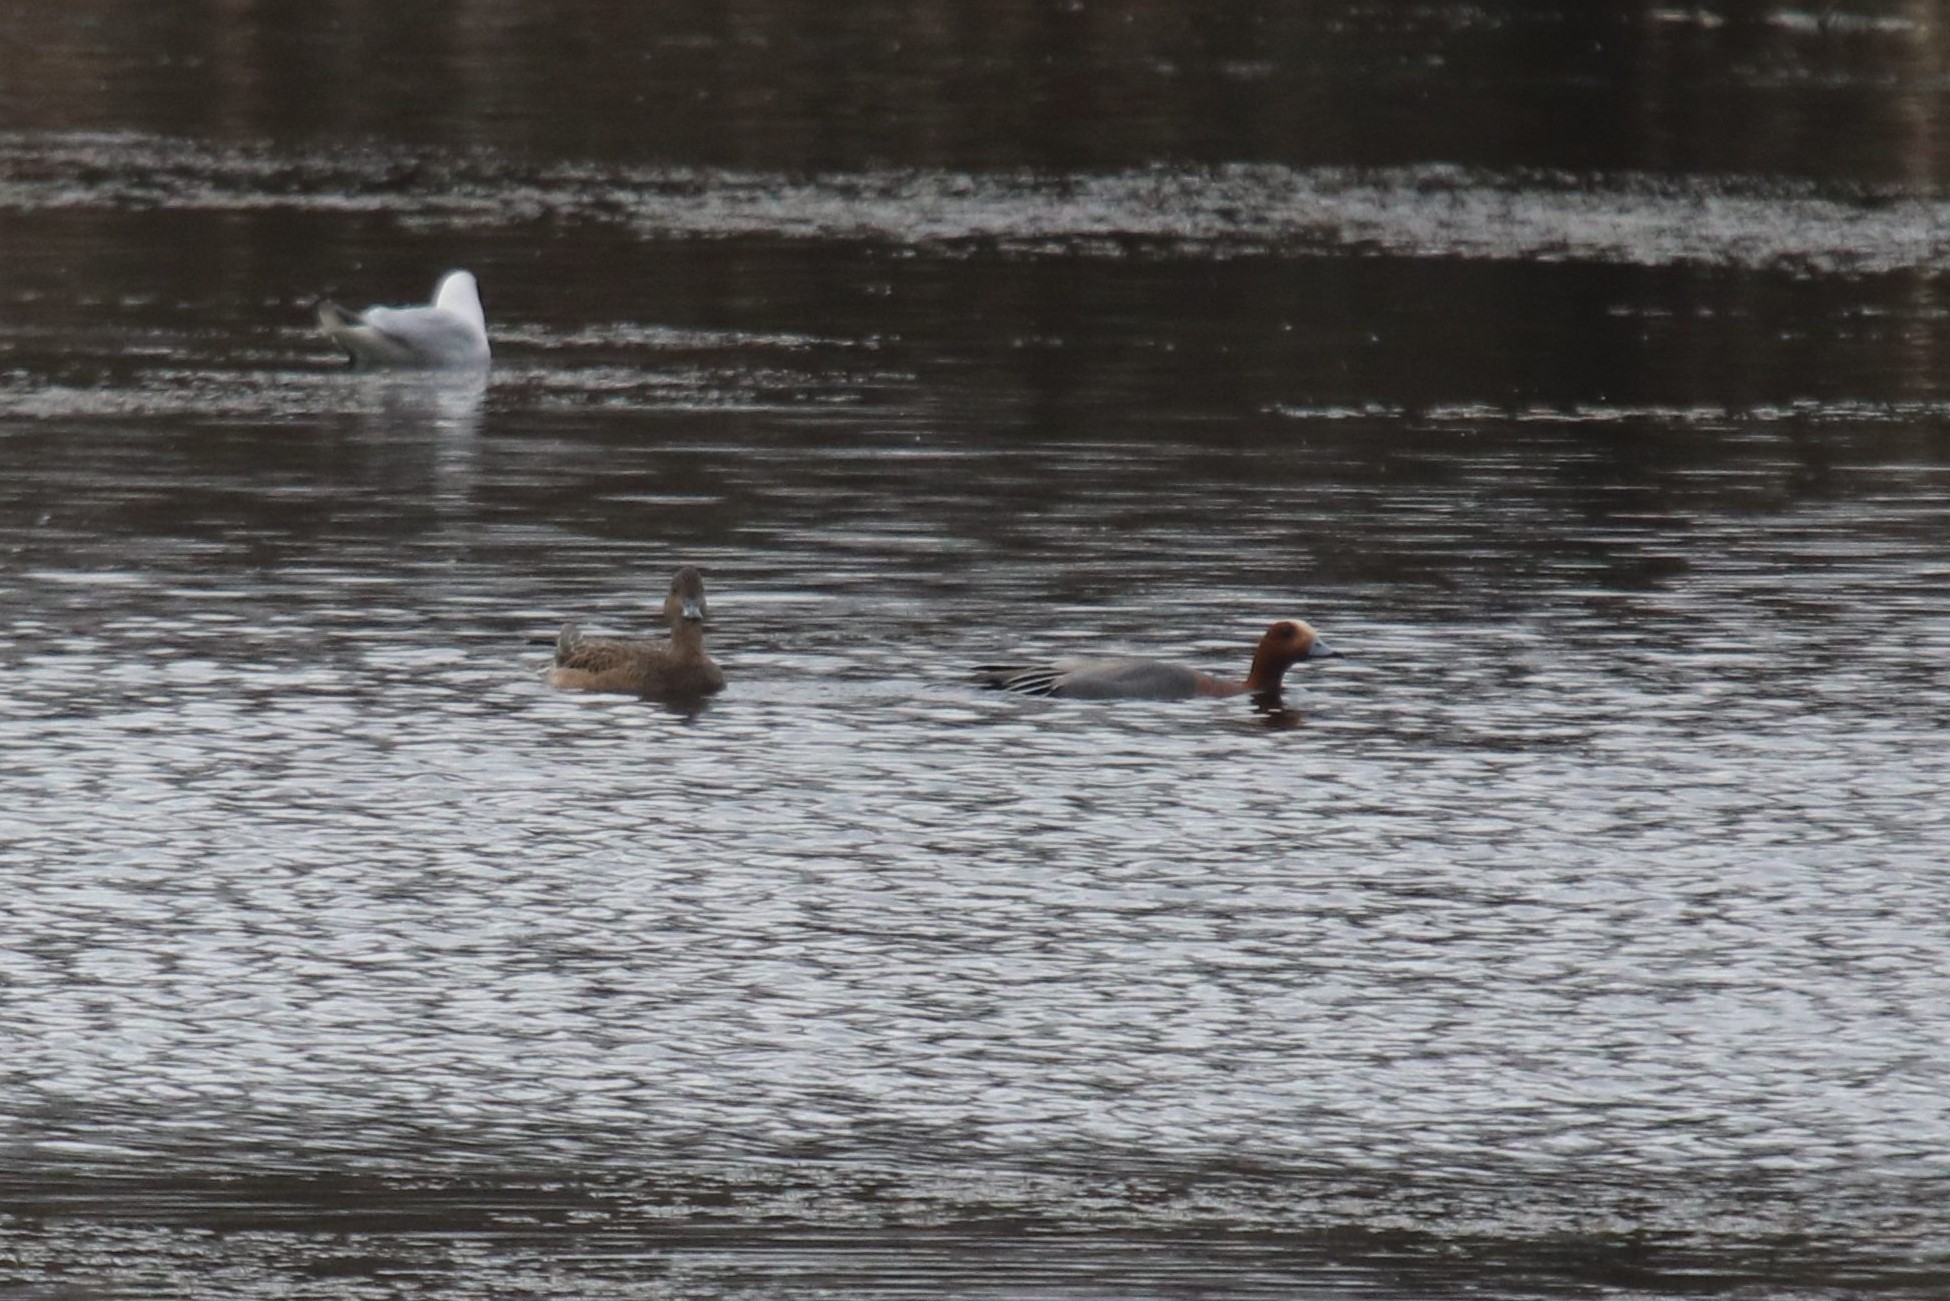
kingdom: Animalia
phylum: Chordata
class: Aves
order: Anseriformes
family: Anatidae
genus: Mareca
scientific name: Mareca penelope
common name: Eurasian wigeon
